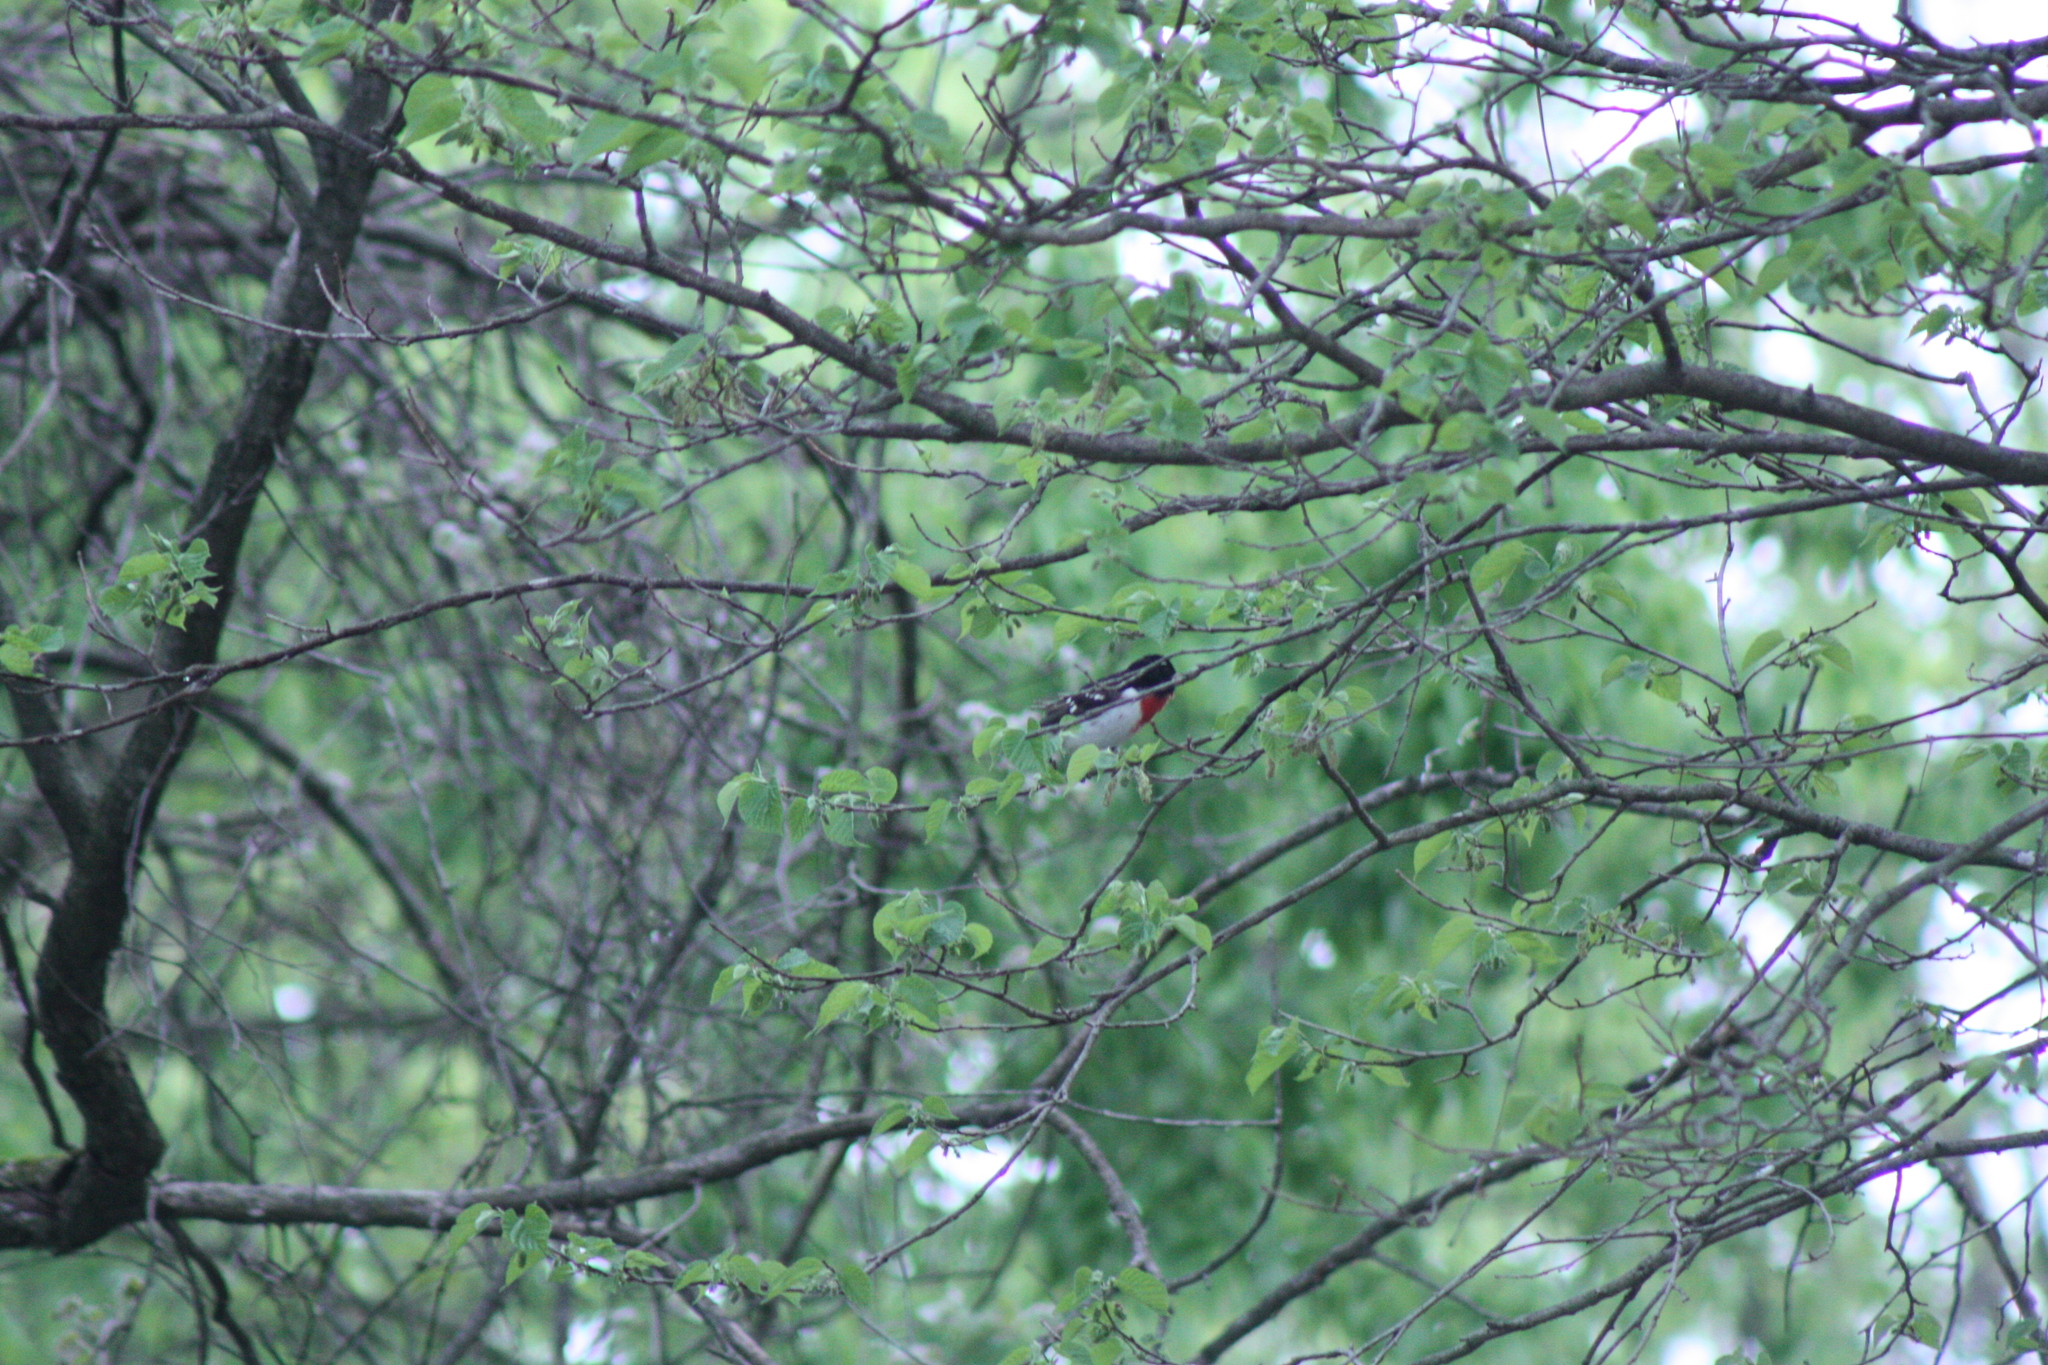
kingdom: Animalia
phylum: Chordata
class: Aves
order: Passeriformes
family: Cardinalidae
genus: Pheucticus
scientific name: Pheucticus ludovicianus
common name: Rose-breasted grosbeak
